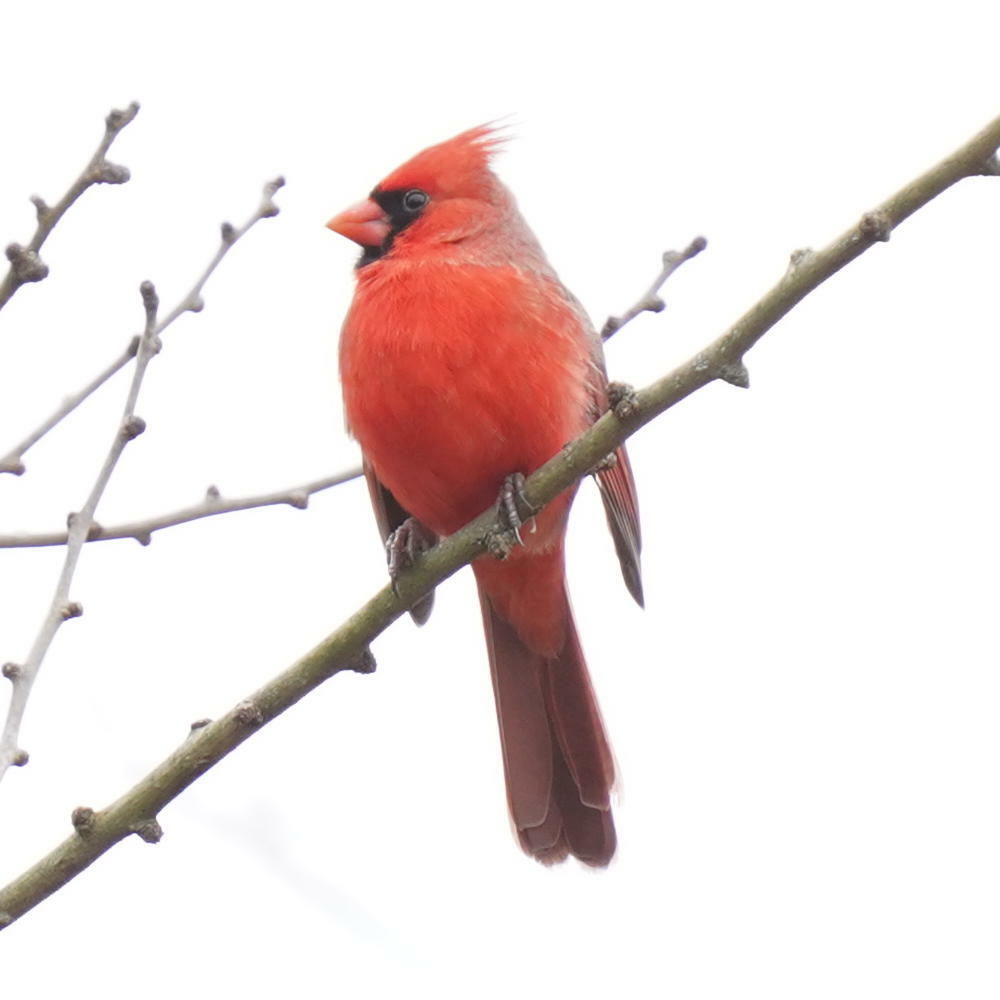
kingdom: Animalia
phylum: Chordata
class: Aves
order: Passeriformes
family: Cardinalidae
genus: Cardinalis
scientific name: Cardinalis cardinalis
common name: Northern cardinal
